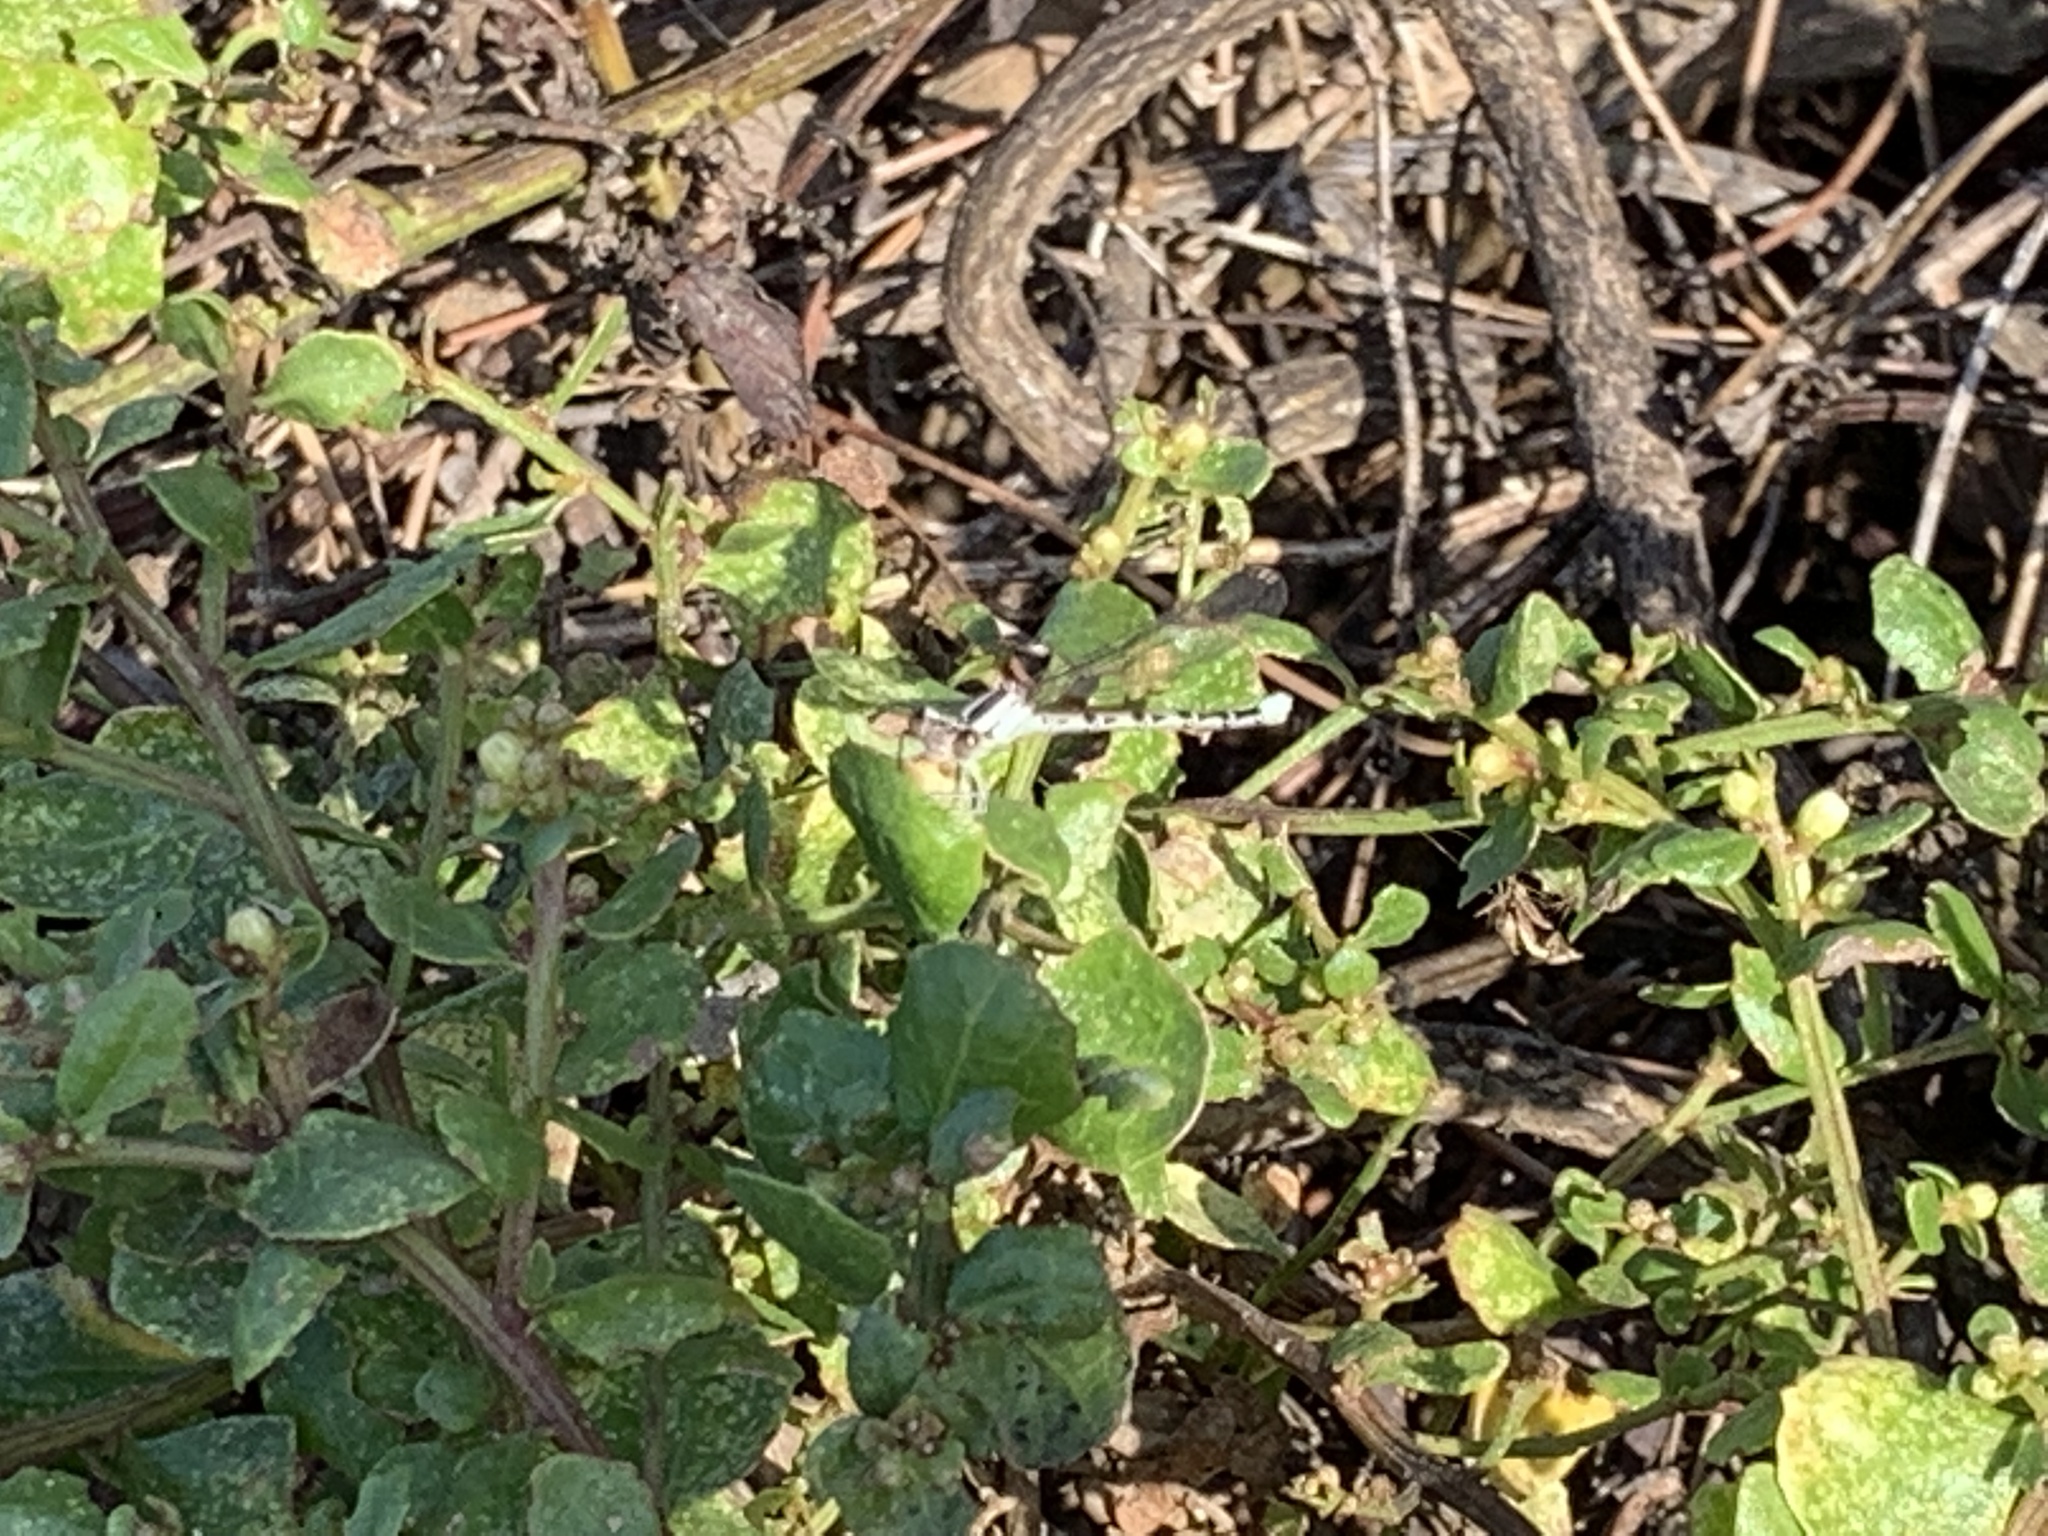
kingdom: Animalia
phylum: Arthropoda
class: Insecta
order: Odonata
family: Coenagrionidae
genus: Argia
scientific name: Argia vivida
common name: Vivid dancer
